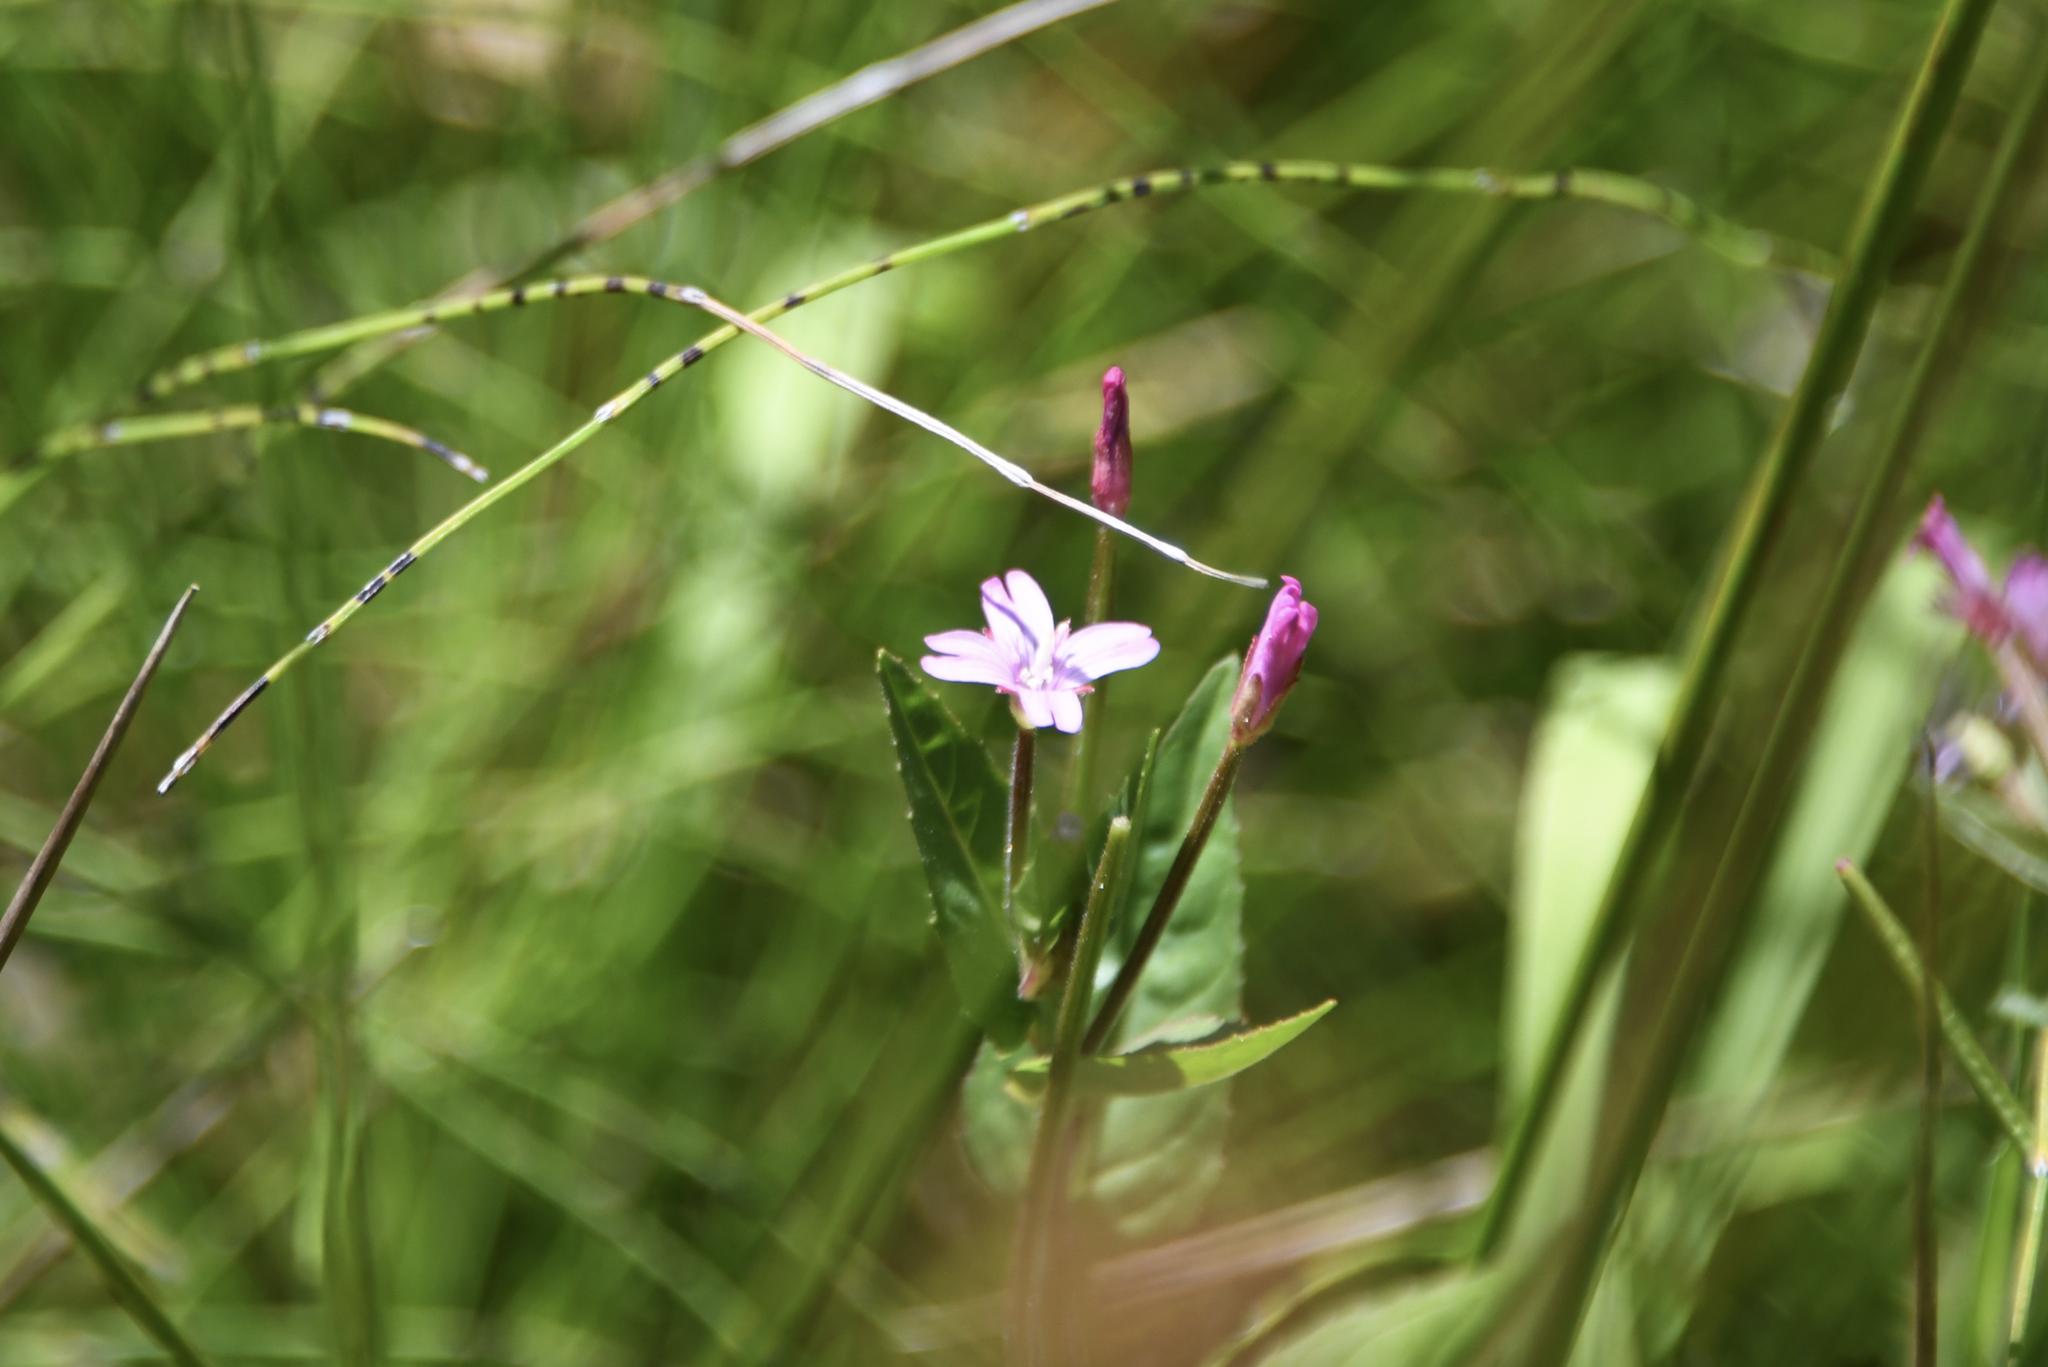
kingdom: Plantae
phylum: Tracheophyta
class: Magnoliopsida
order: Myrtales
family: Onagraceae
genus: Epilobium
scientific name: Epilobium ciliatum
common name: American willowherb
